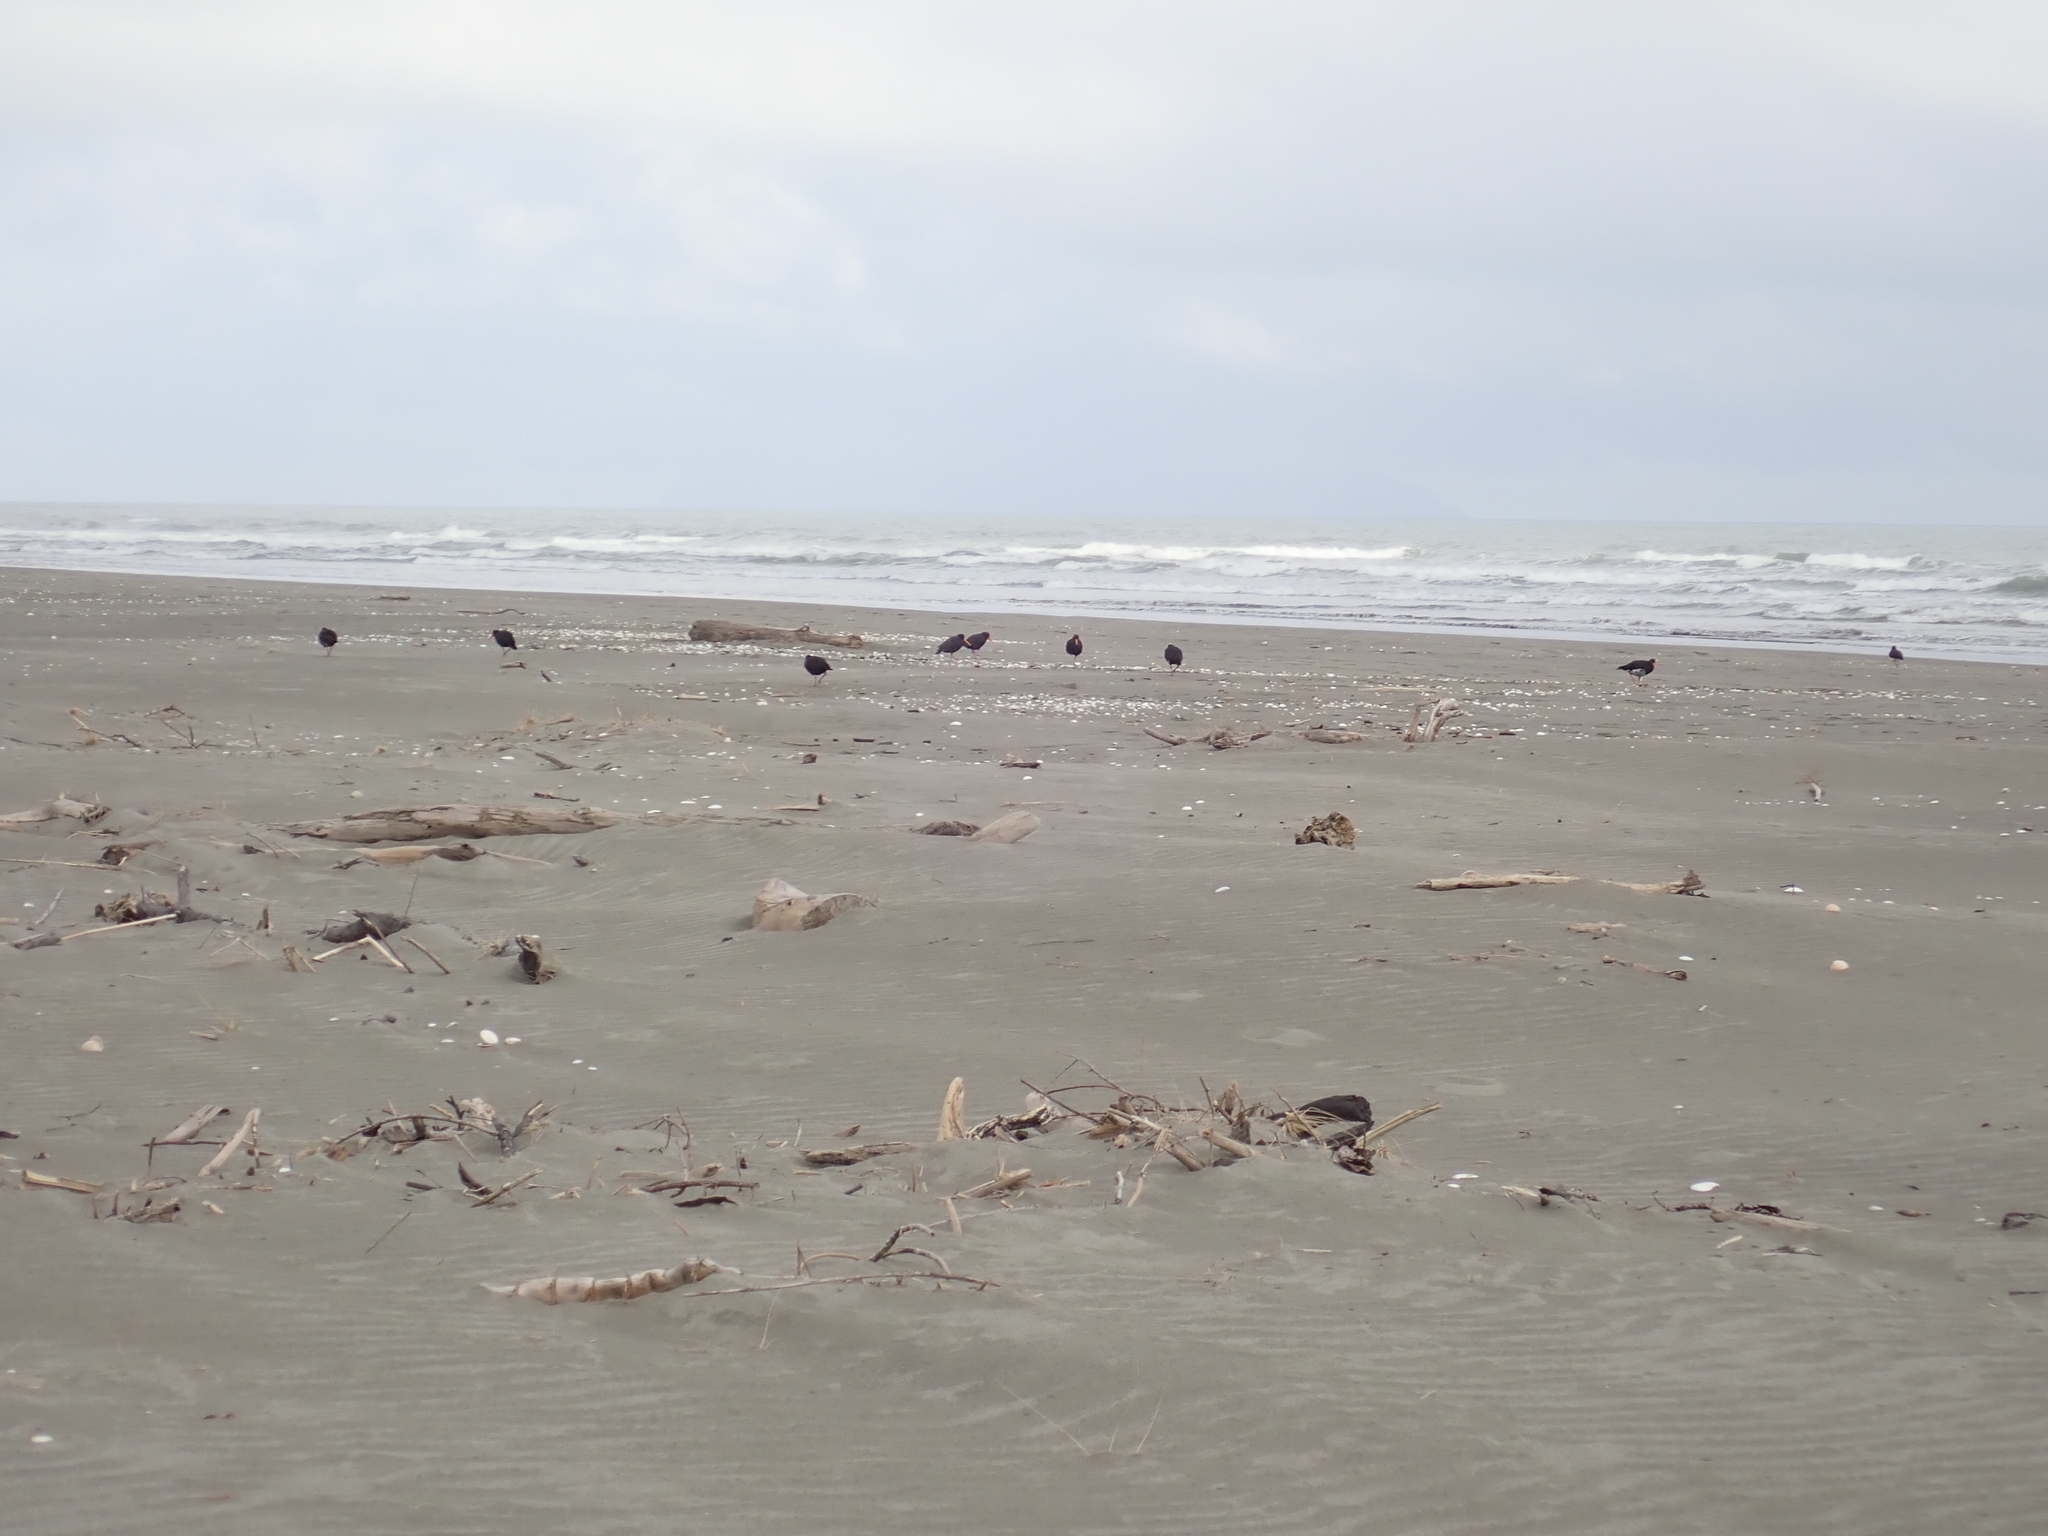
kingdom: Animalia
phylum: Chordata
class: Aves
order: Charadriiformes
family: Haematopodidae
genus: Haematopus
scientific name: Haematopus unicolor
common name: Variable oystercatcher
